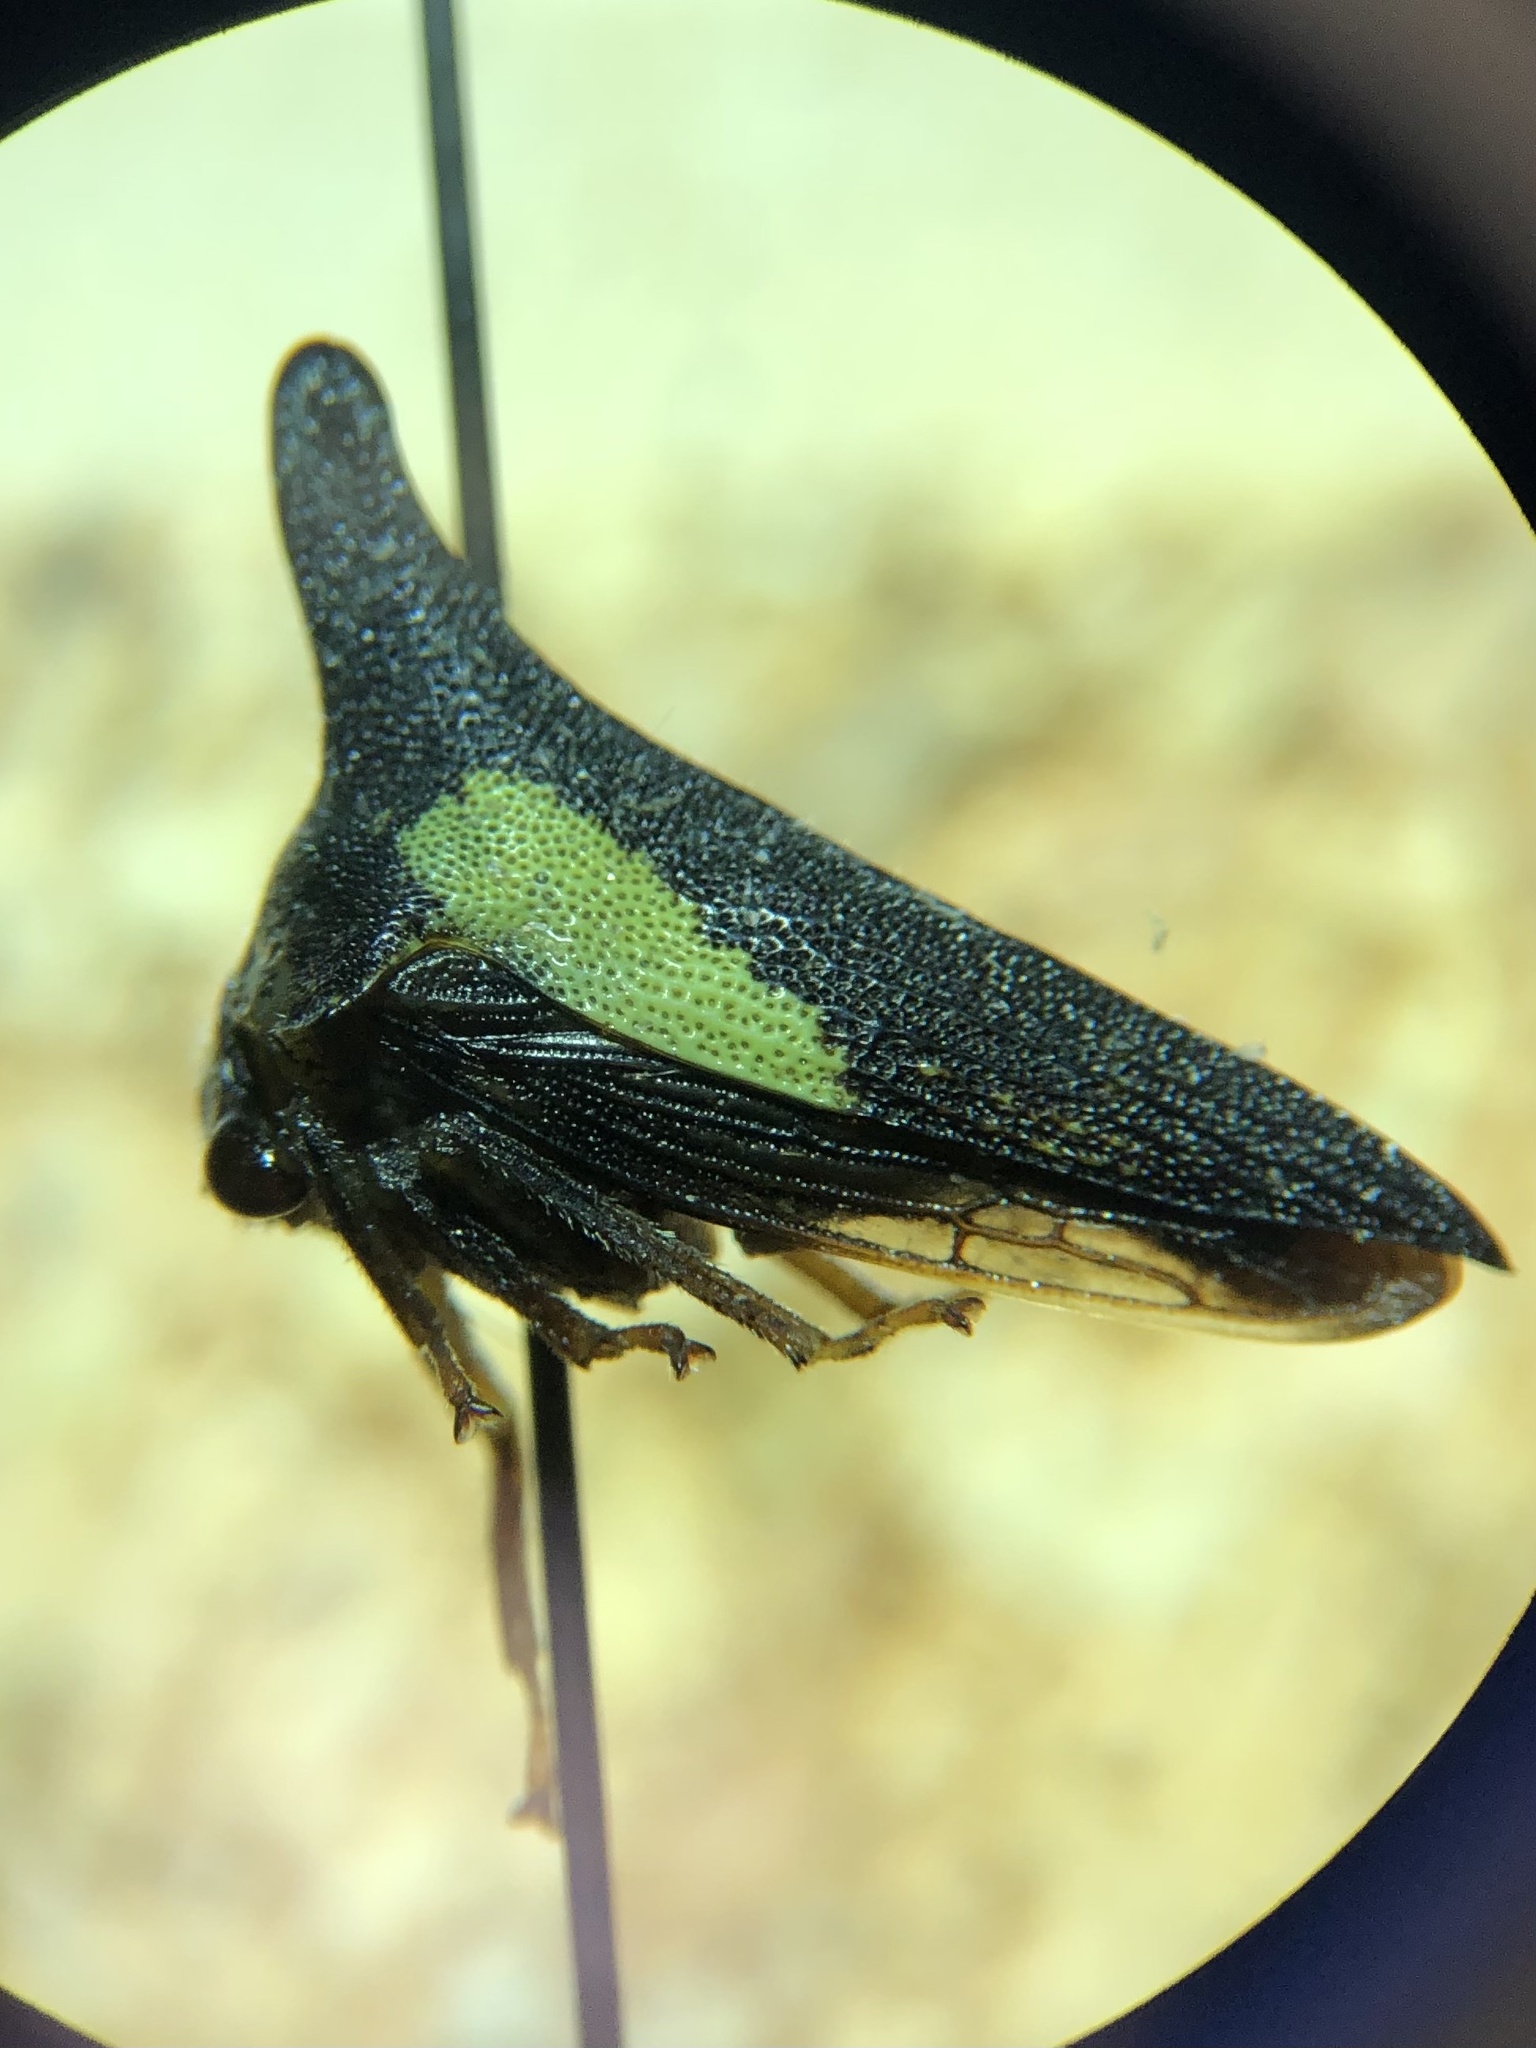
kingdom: Animalia
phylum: Arthropoda
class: Insecta
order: Hemiptera
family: Membracidae
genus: Thelia
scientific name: Thelia bimaculata
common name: Locust treehopper
